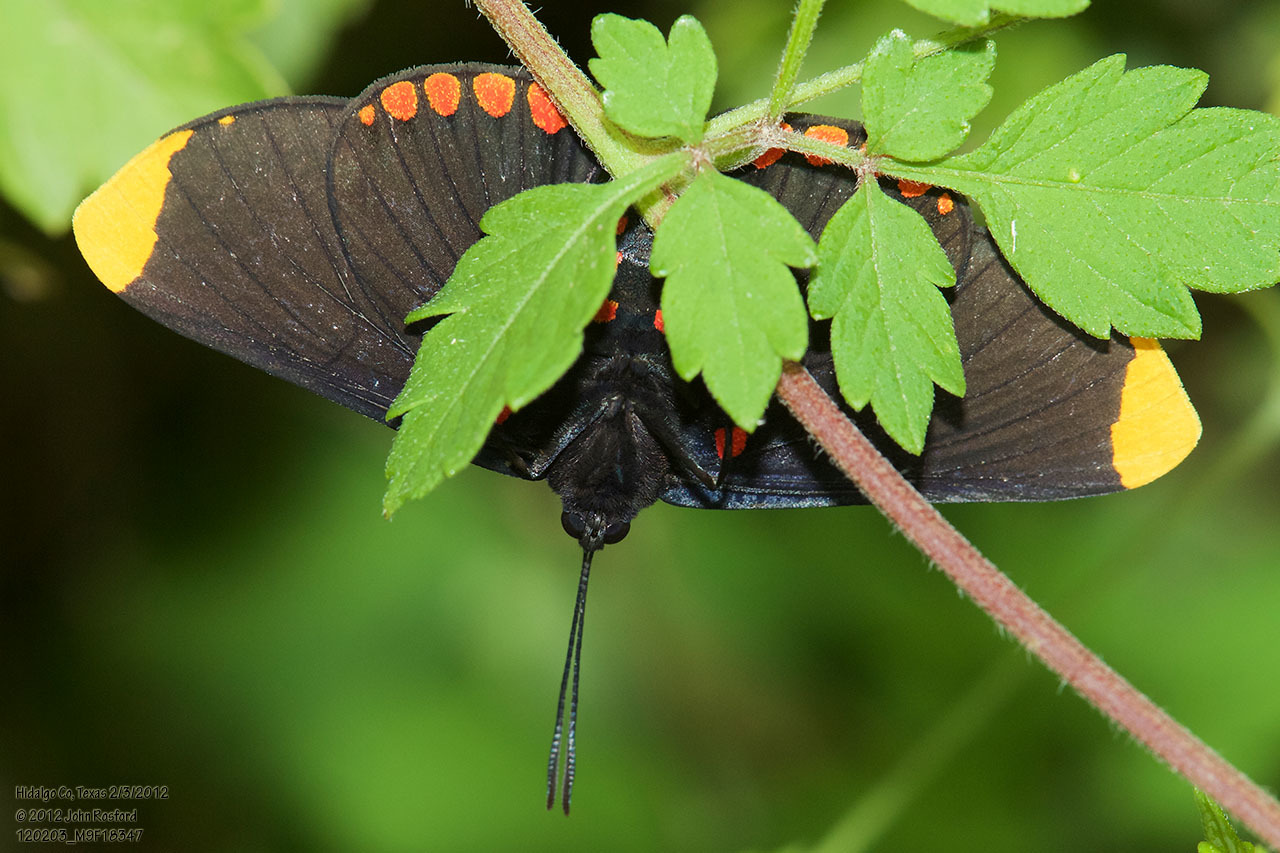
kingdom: Animalia
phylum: Arthropoda
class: Insecta
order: Lepidoptera
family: Lycaenidae
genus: Melanis
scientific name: Melanis pixe
